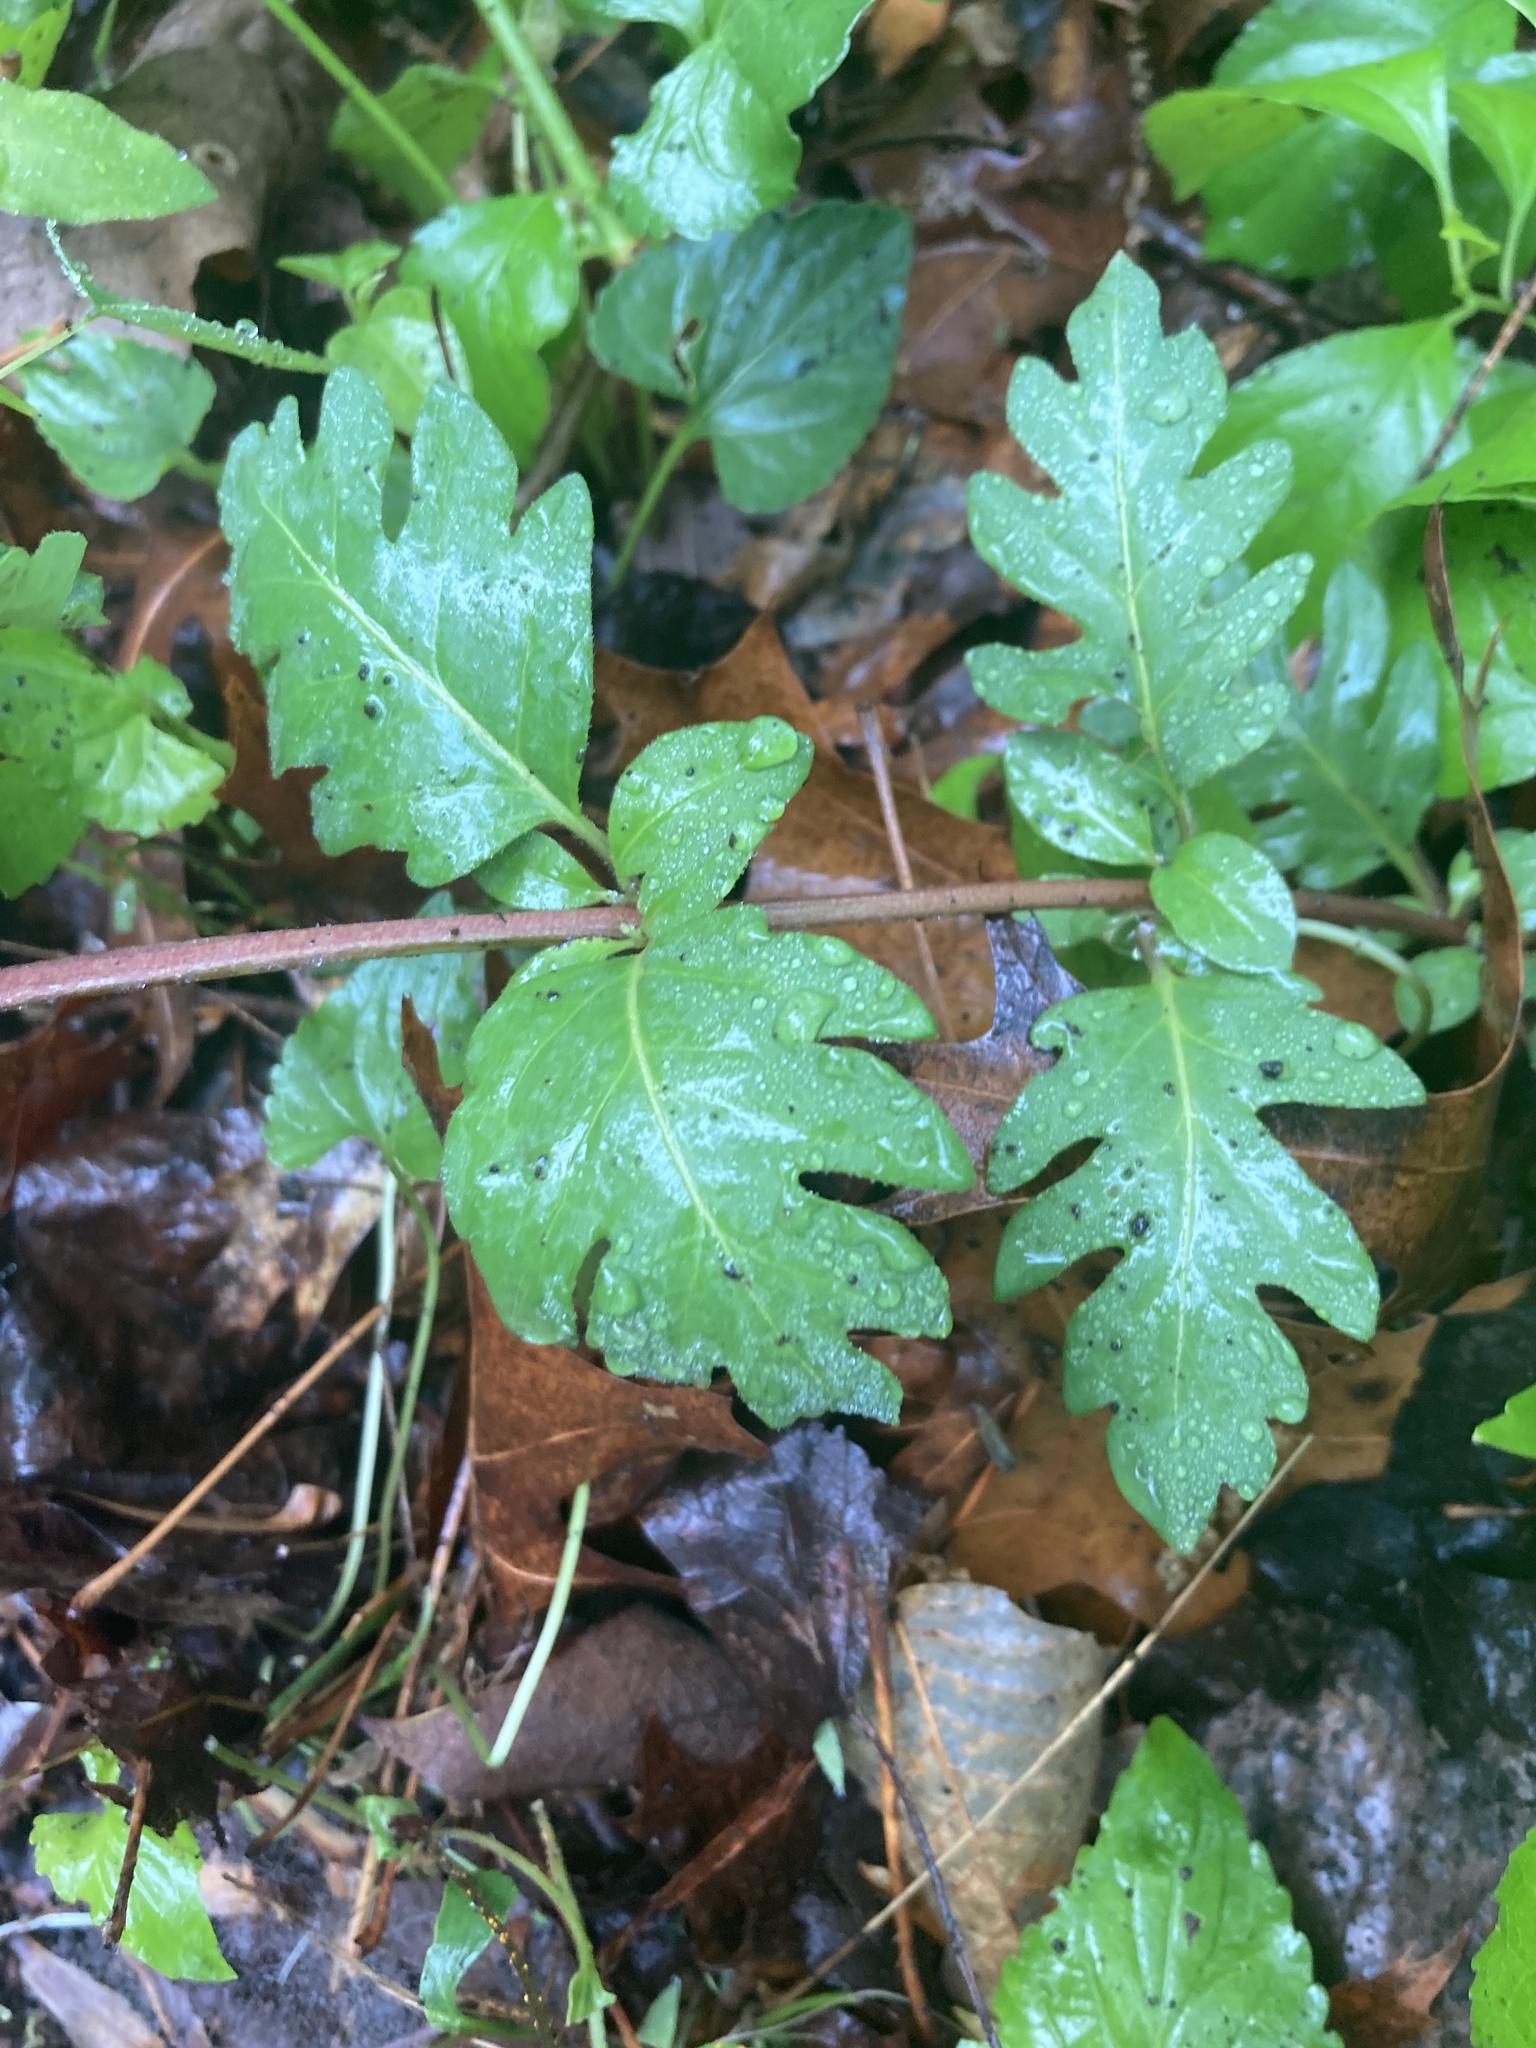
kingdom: Plantae
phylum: Tracheophyta
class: Magnoliopsida
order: Dipsacales
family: Caprifoliaceae
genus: Lonicera
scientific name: Lonicera japonica
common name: Japanese honeysuckle
